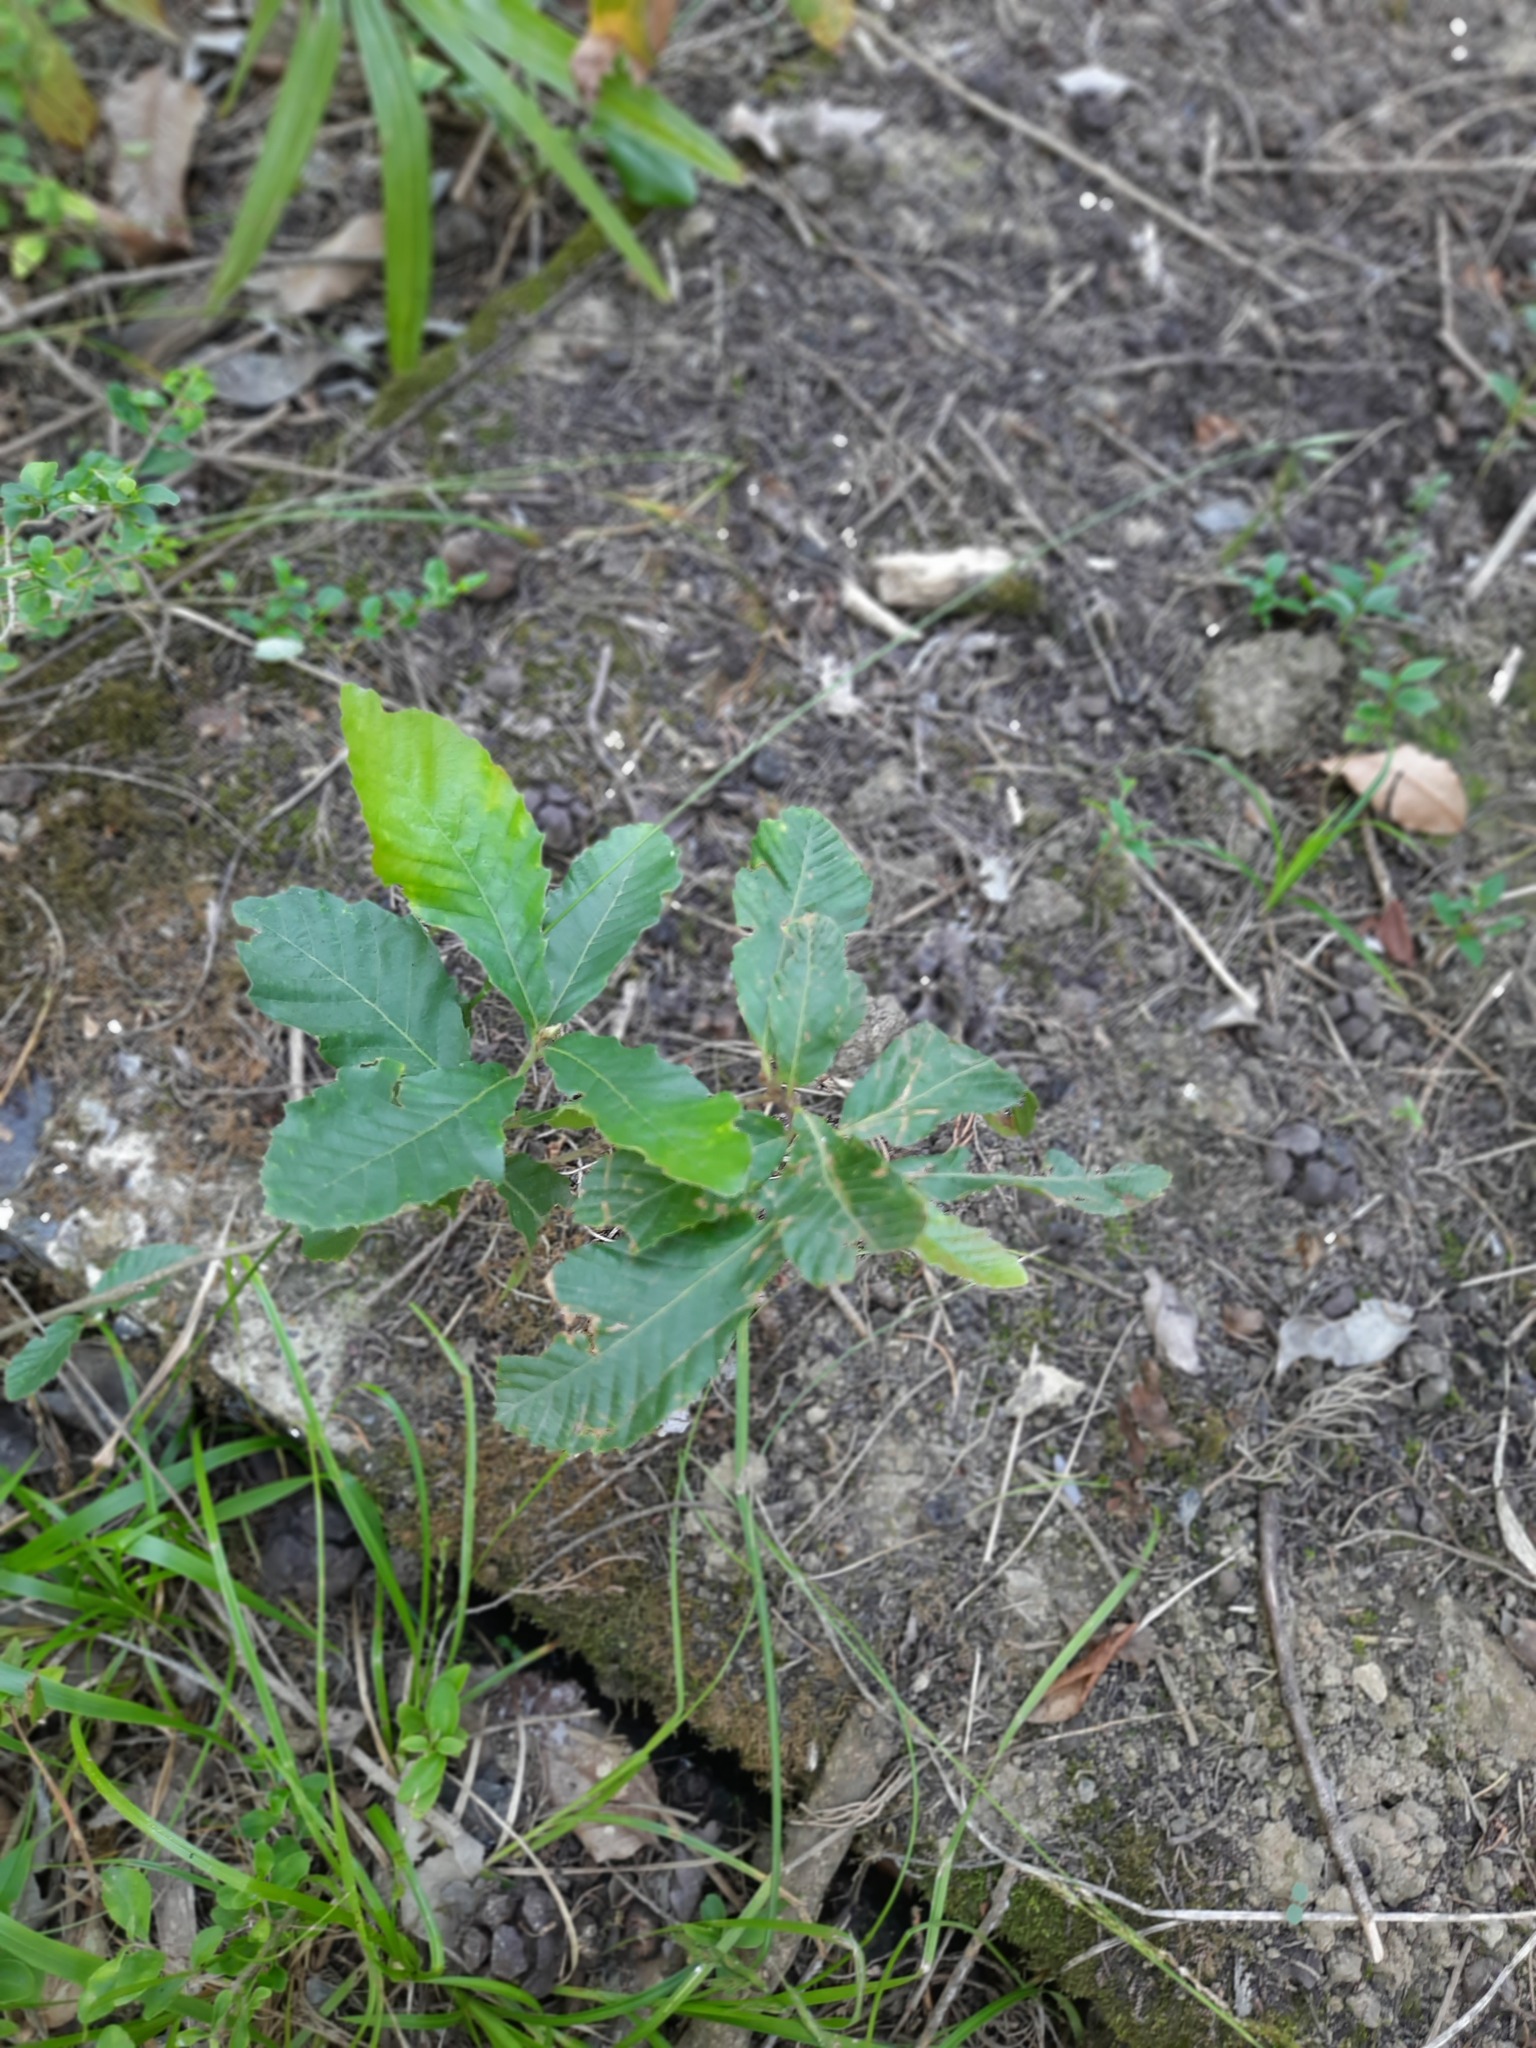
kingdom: Plantae
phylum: Tracheophyta
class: Magnoliopsida
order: Fagales
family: Fagaceae
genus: Castanea
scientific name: Castanea sativa
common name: Sweet chestnut
